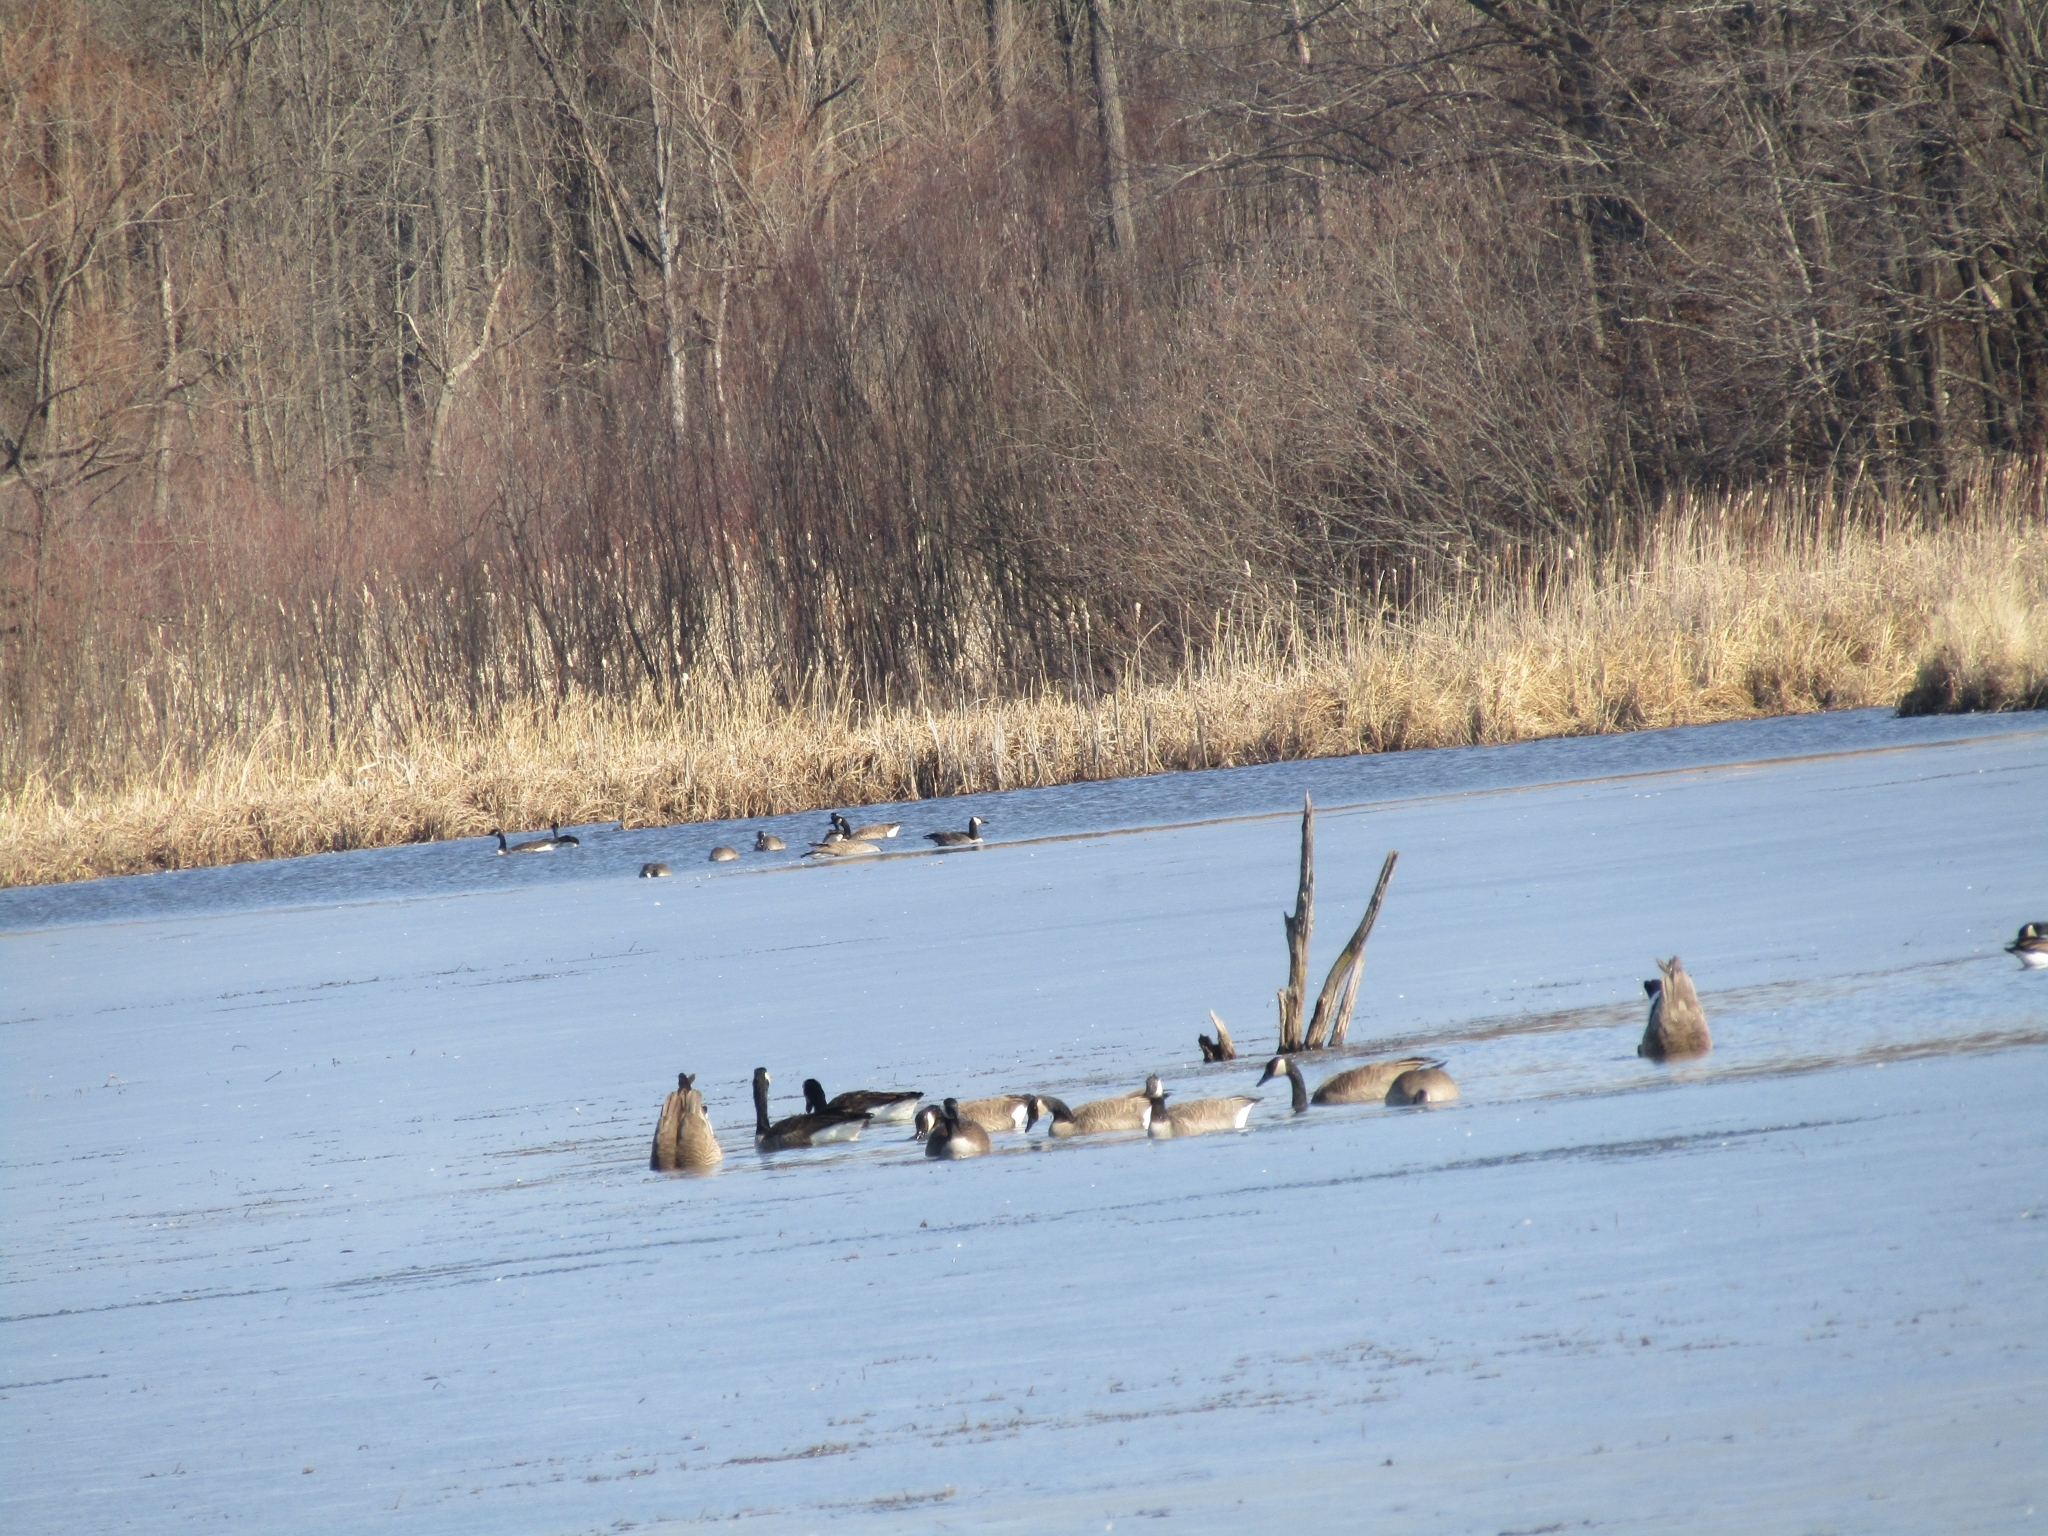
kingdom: Animalia
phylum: Chordata
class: Aves
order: Anseriformes
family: Anatidae
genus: Branta
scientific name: Branta canadensis
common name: Canada goose
